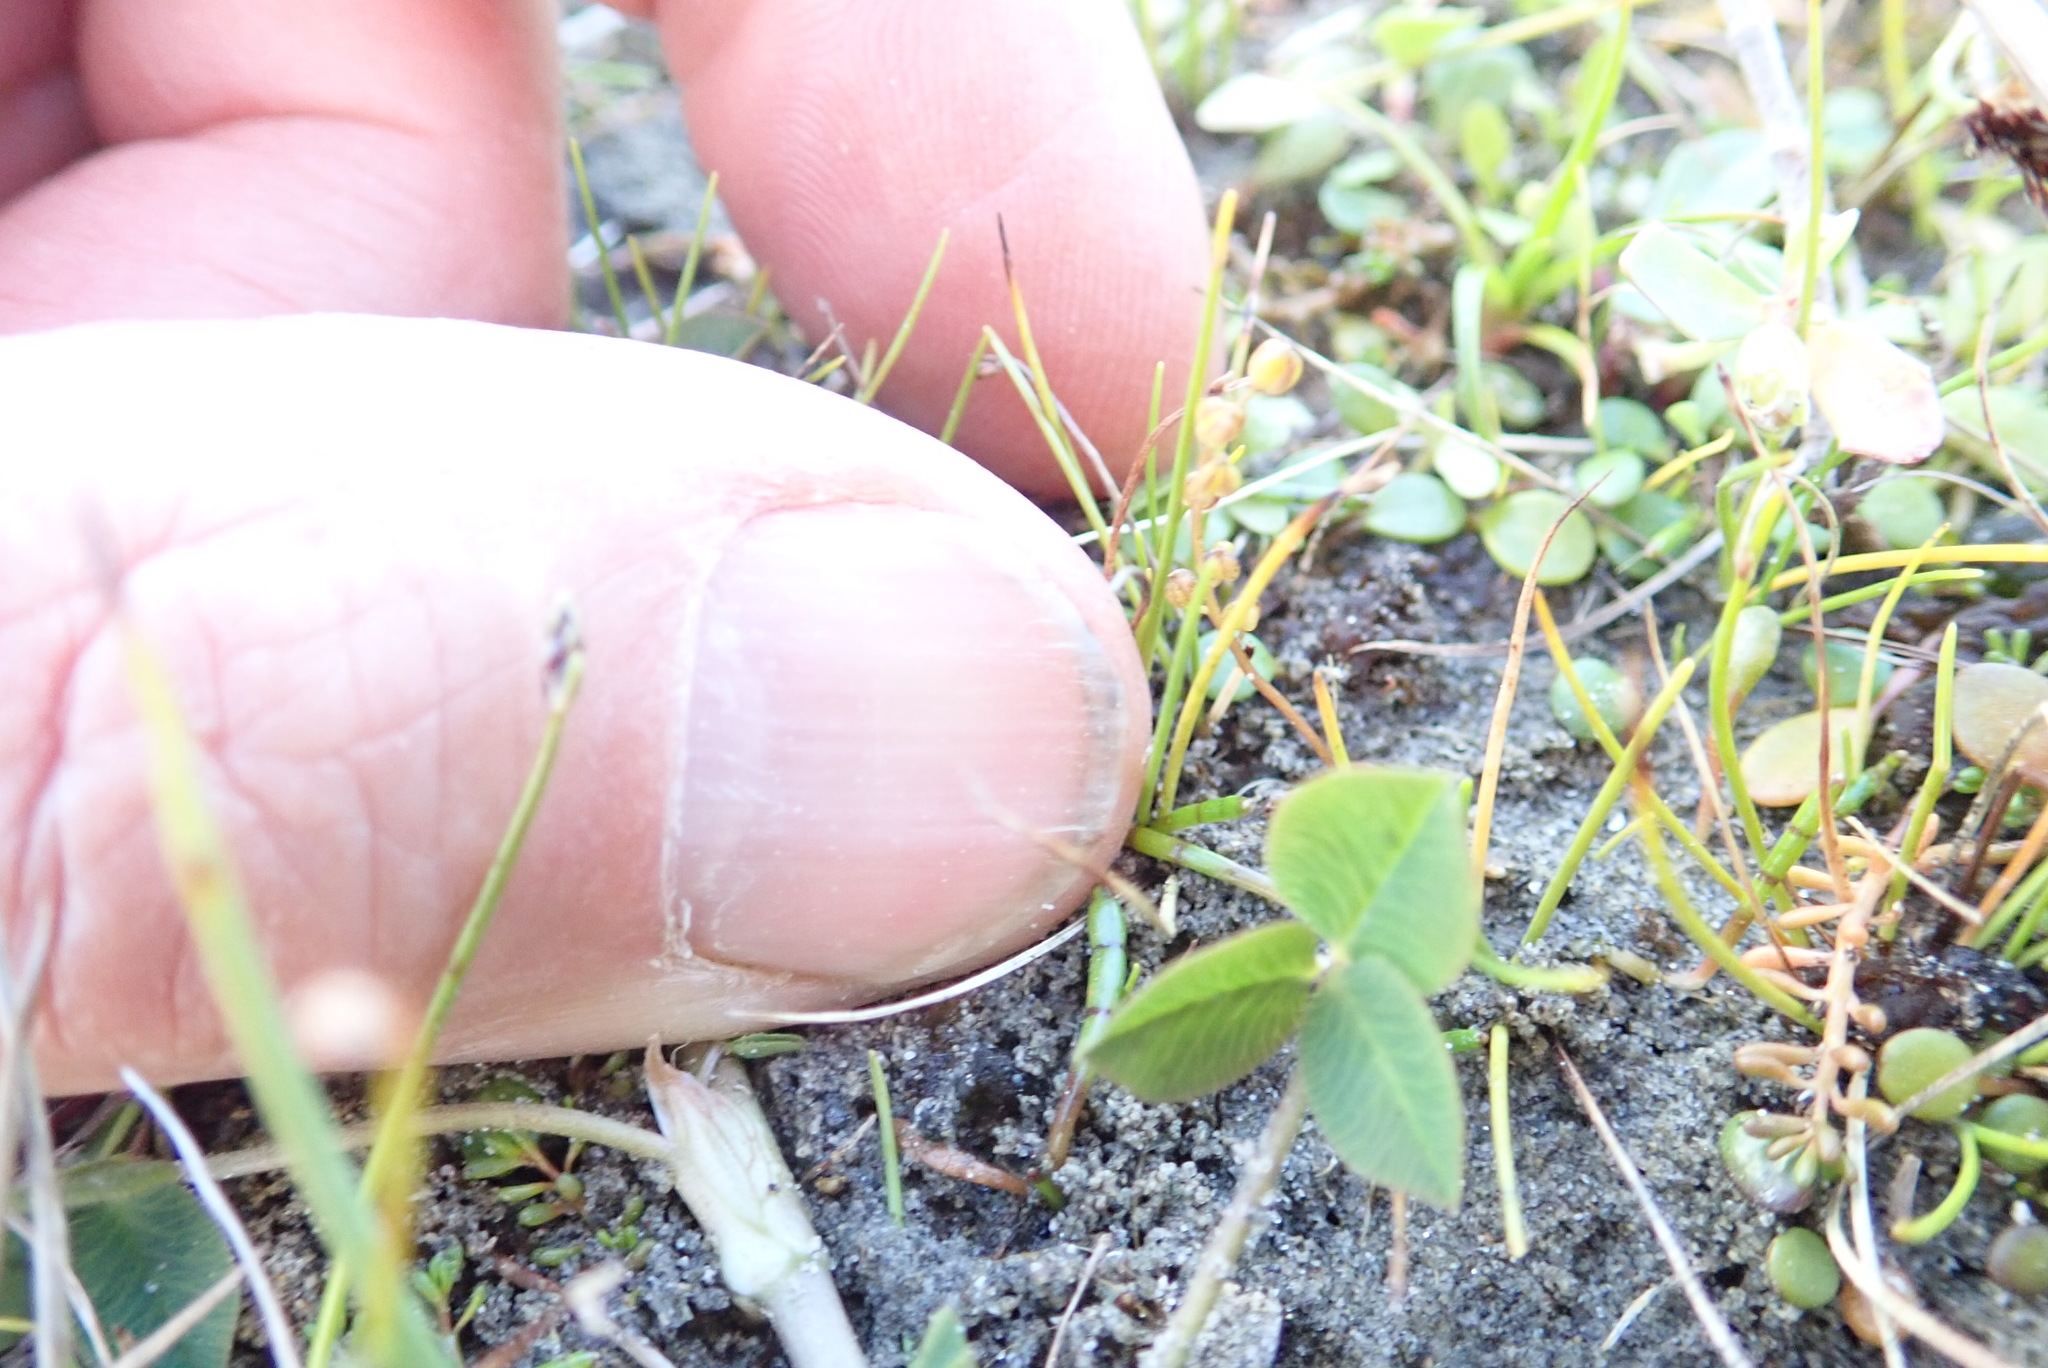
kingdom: Plantae
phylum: Tracheophyta
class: Liliopsida
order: Alismatales
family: Juncaginaceae
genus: Triglochin
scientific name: Triglochin striata
